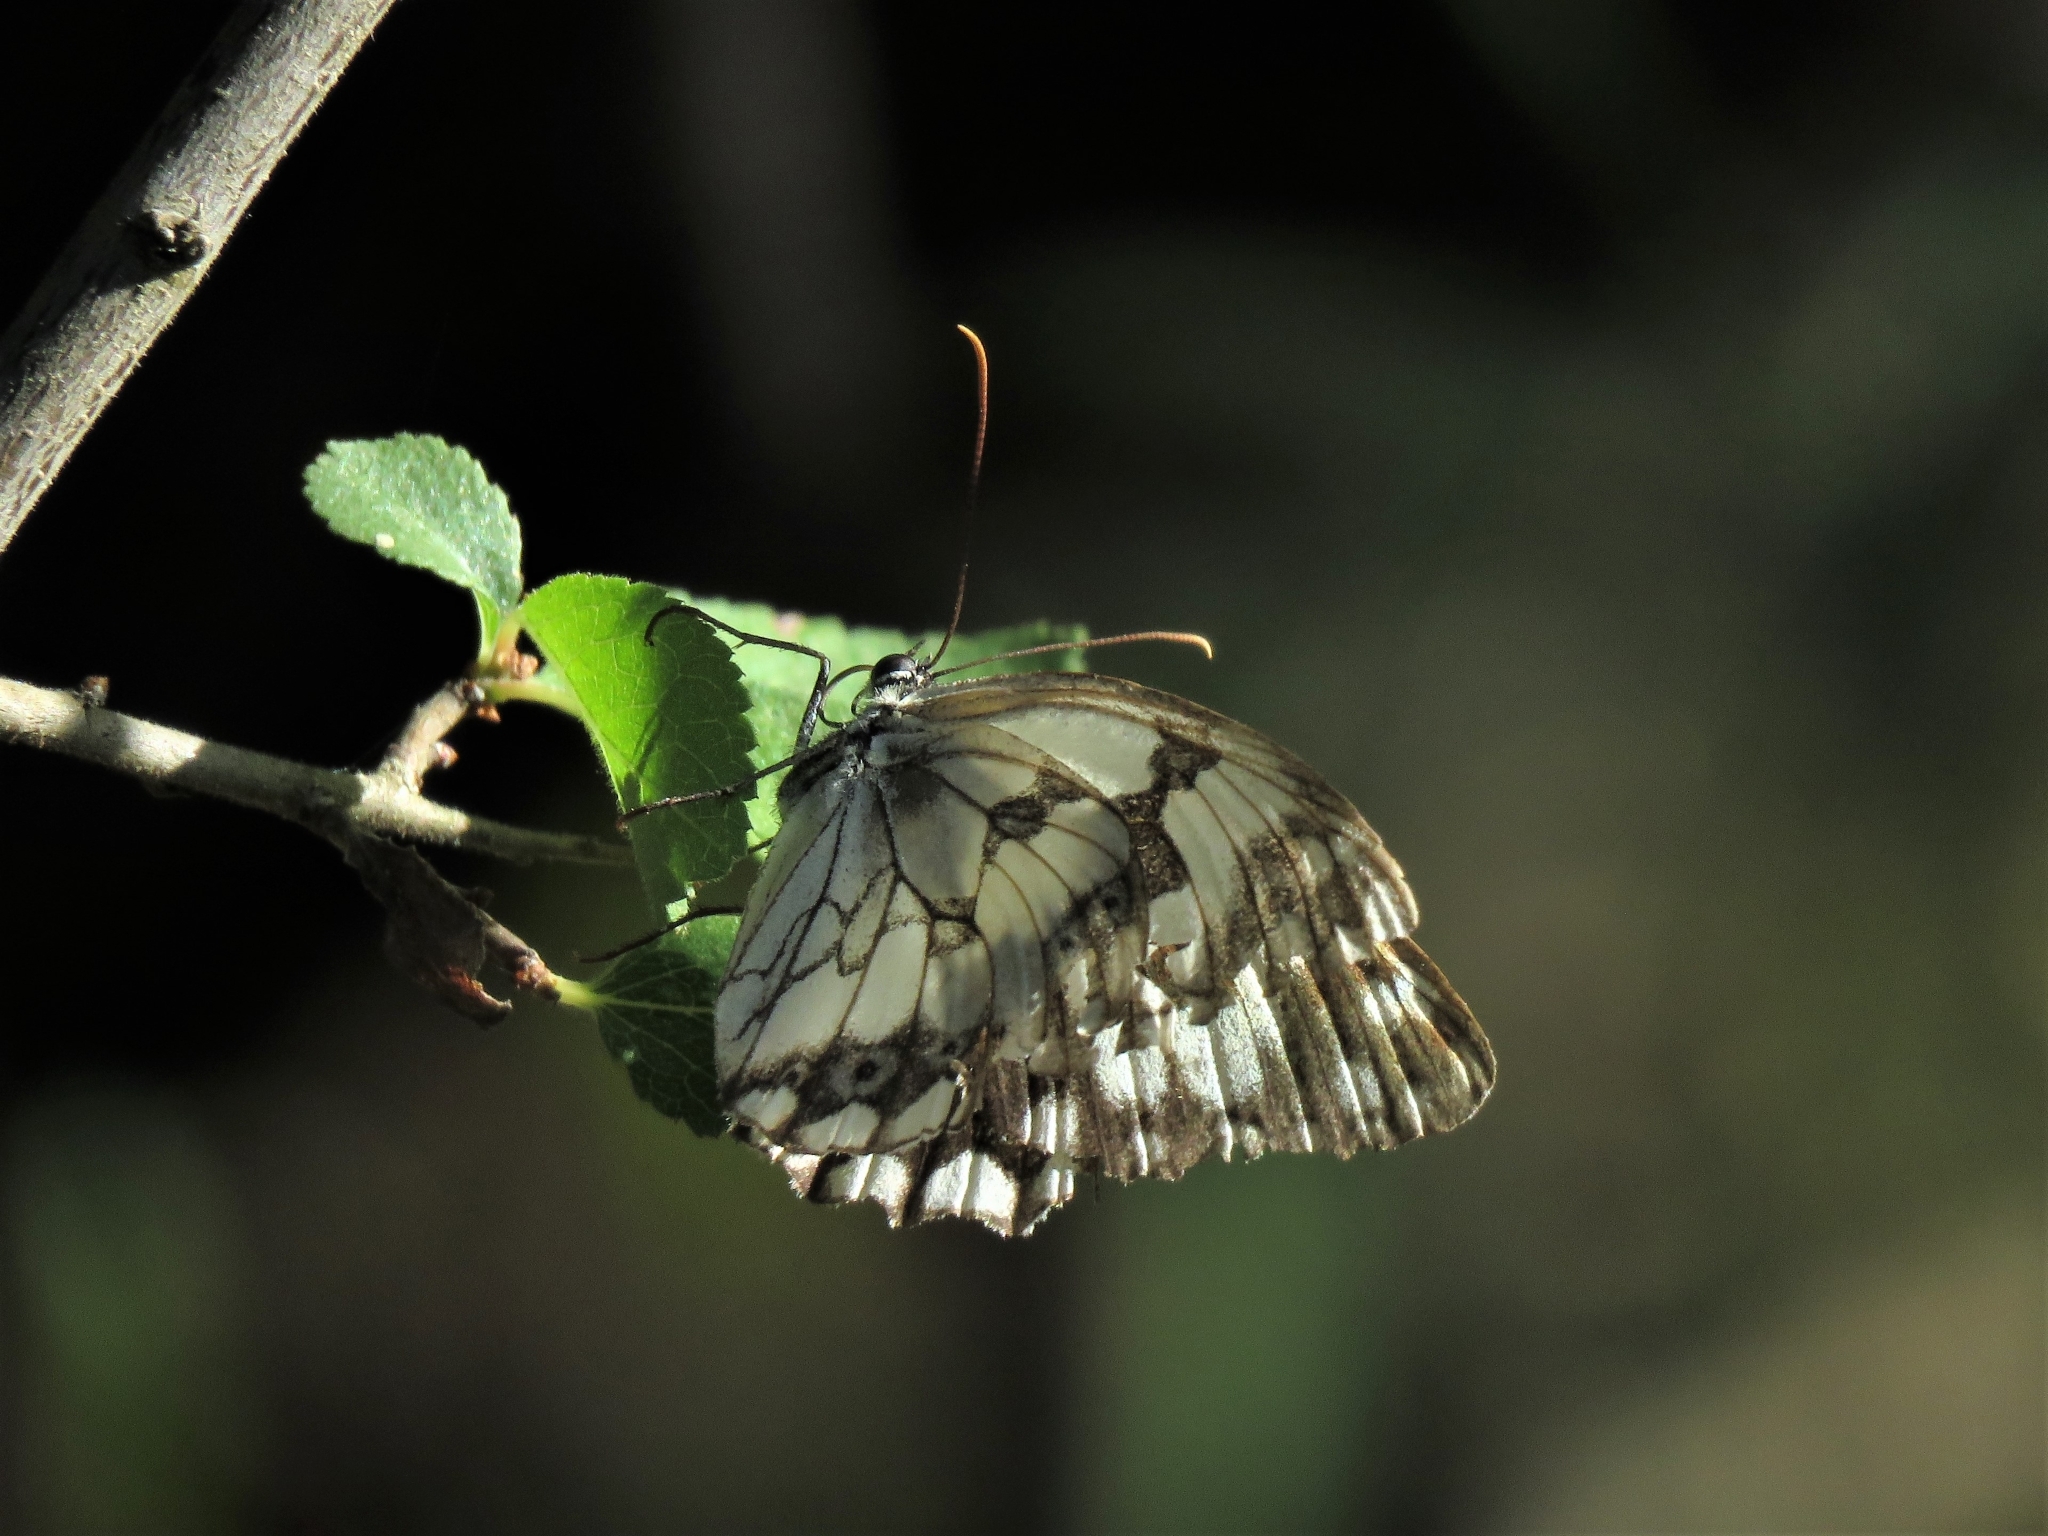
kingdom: Animalia
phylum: Arthropoda
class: Insecta
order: Lepidoptera
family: Nymphalidae
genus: Melanargia
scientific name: Melanargia lachesis
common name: Iberian marbled white
